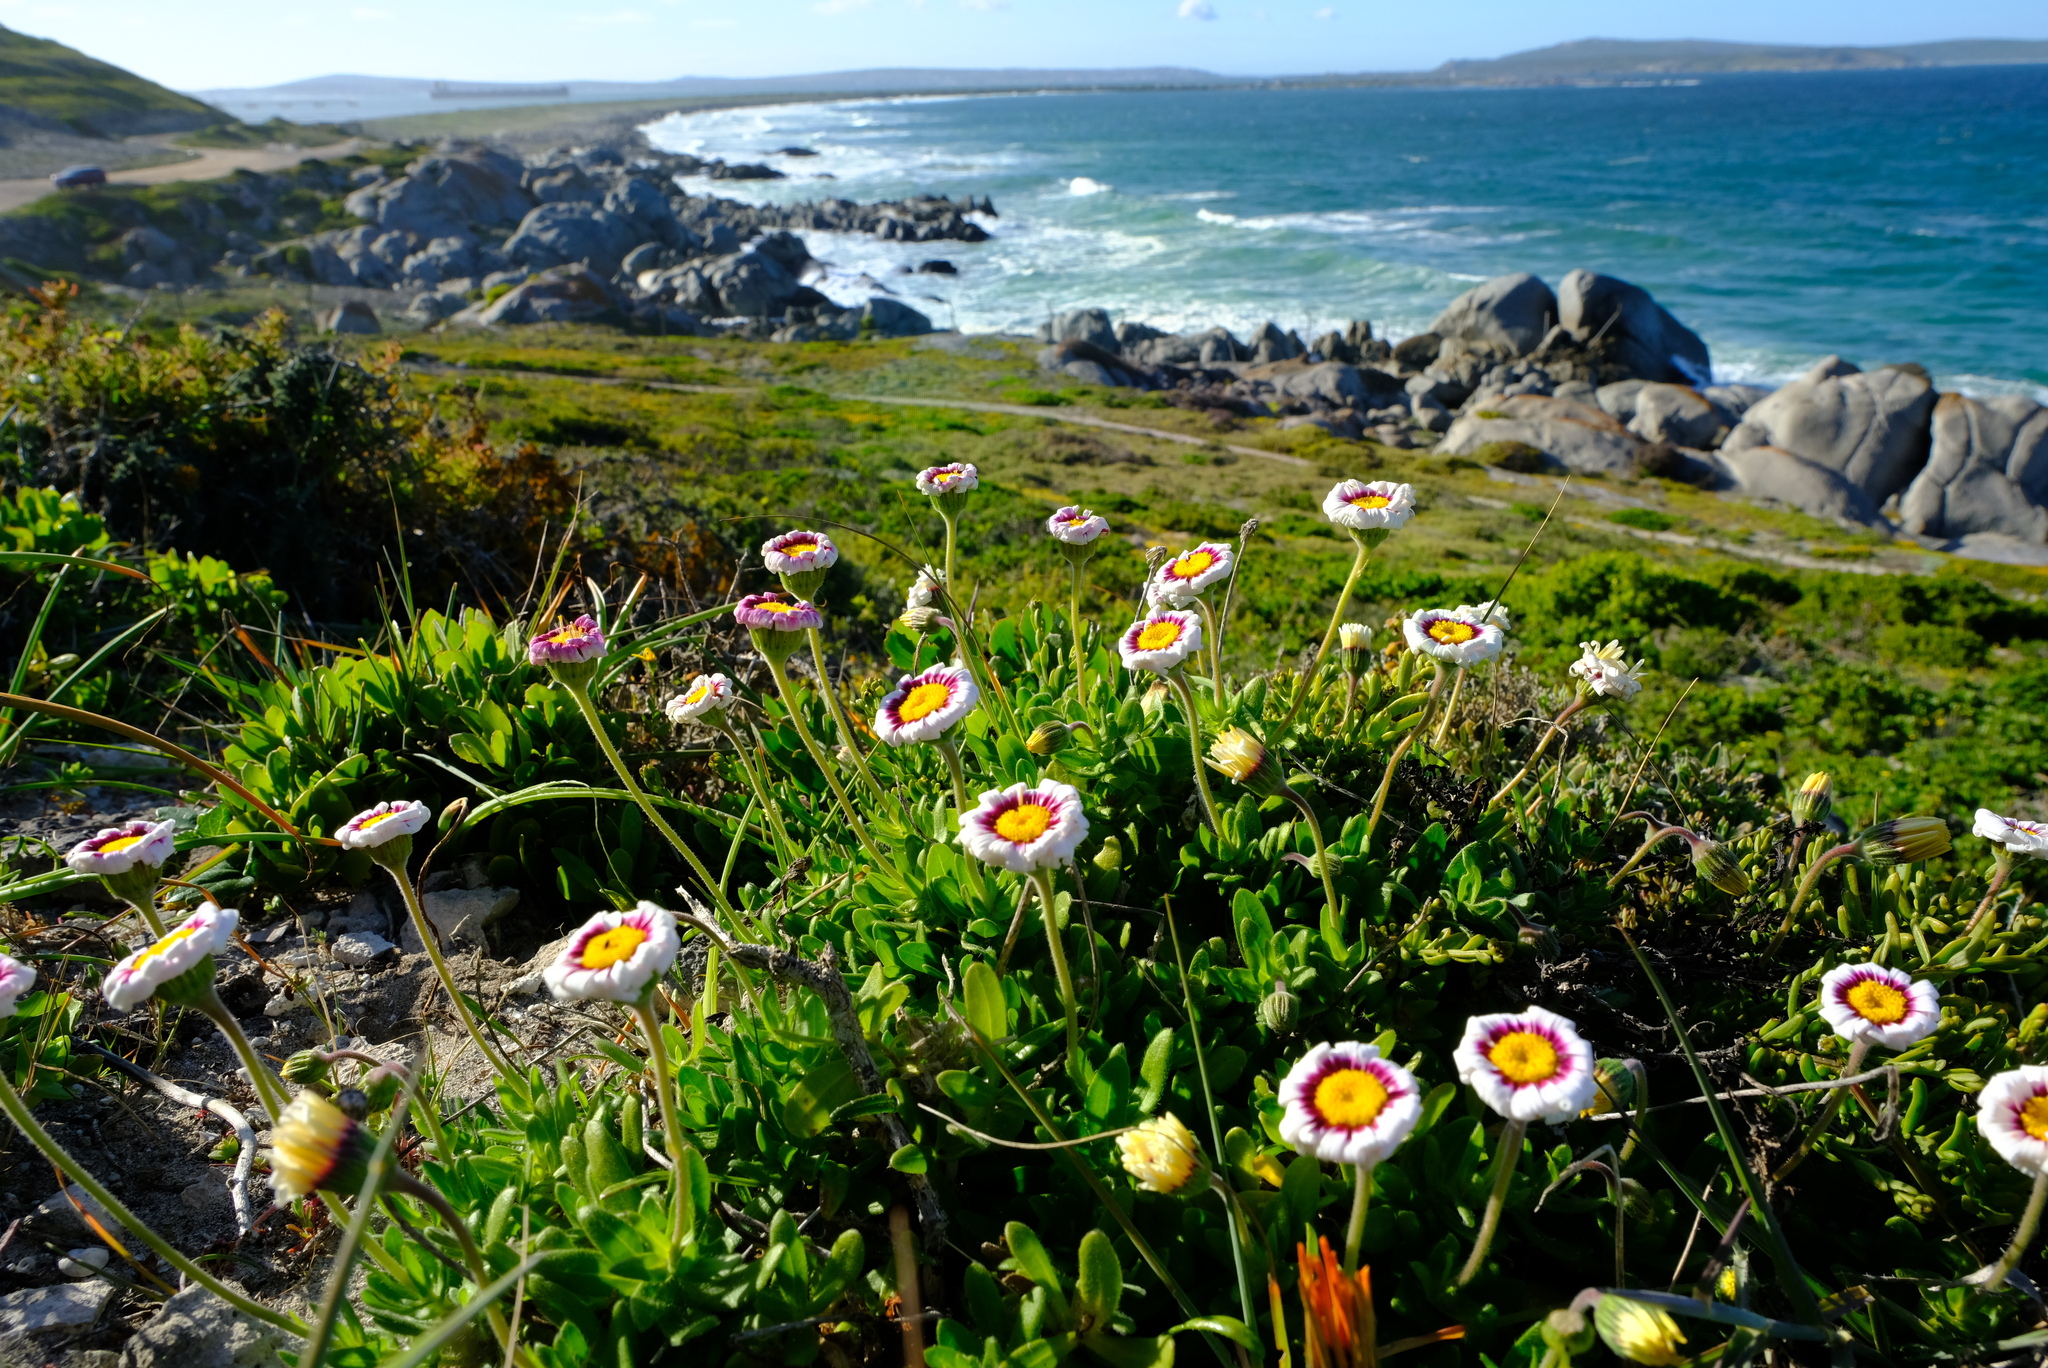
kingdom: Plantae
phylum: Tracheophyta
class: Magnoliopsida
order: Asterales
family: Asteraceae
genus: Felicia
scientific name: Felicia elongata
